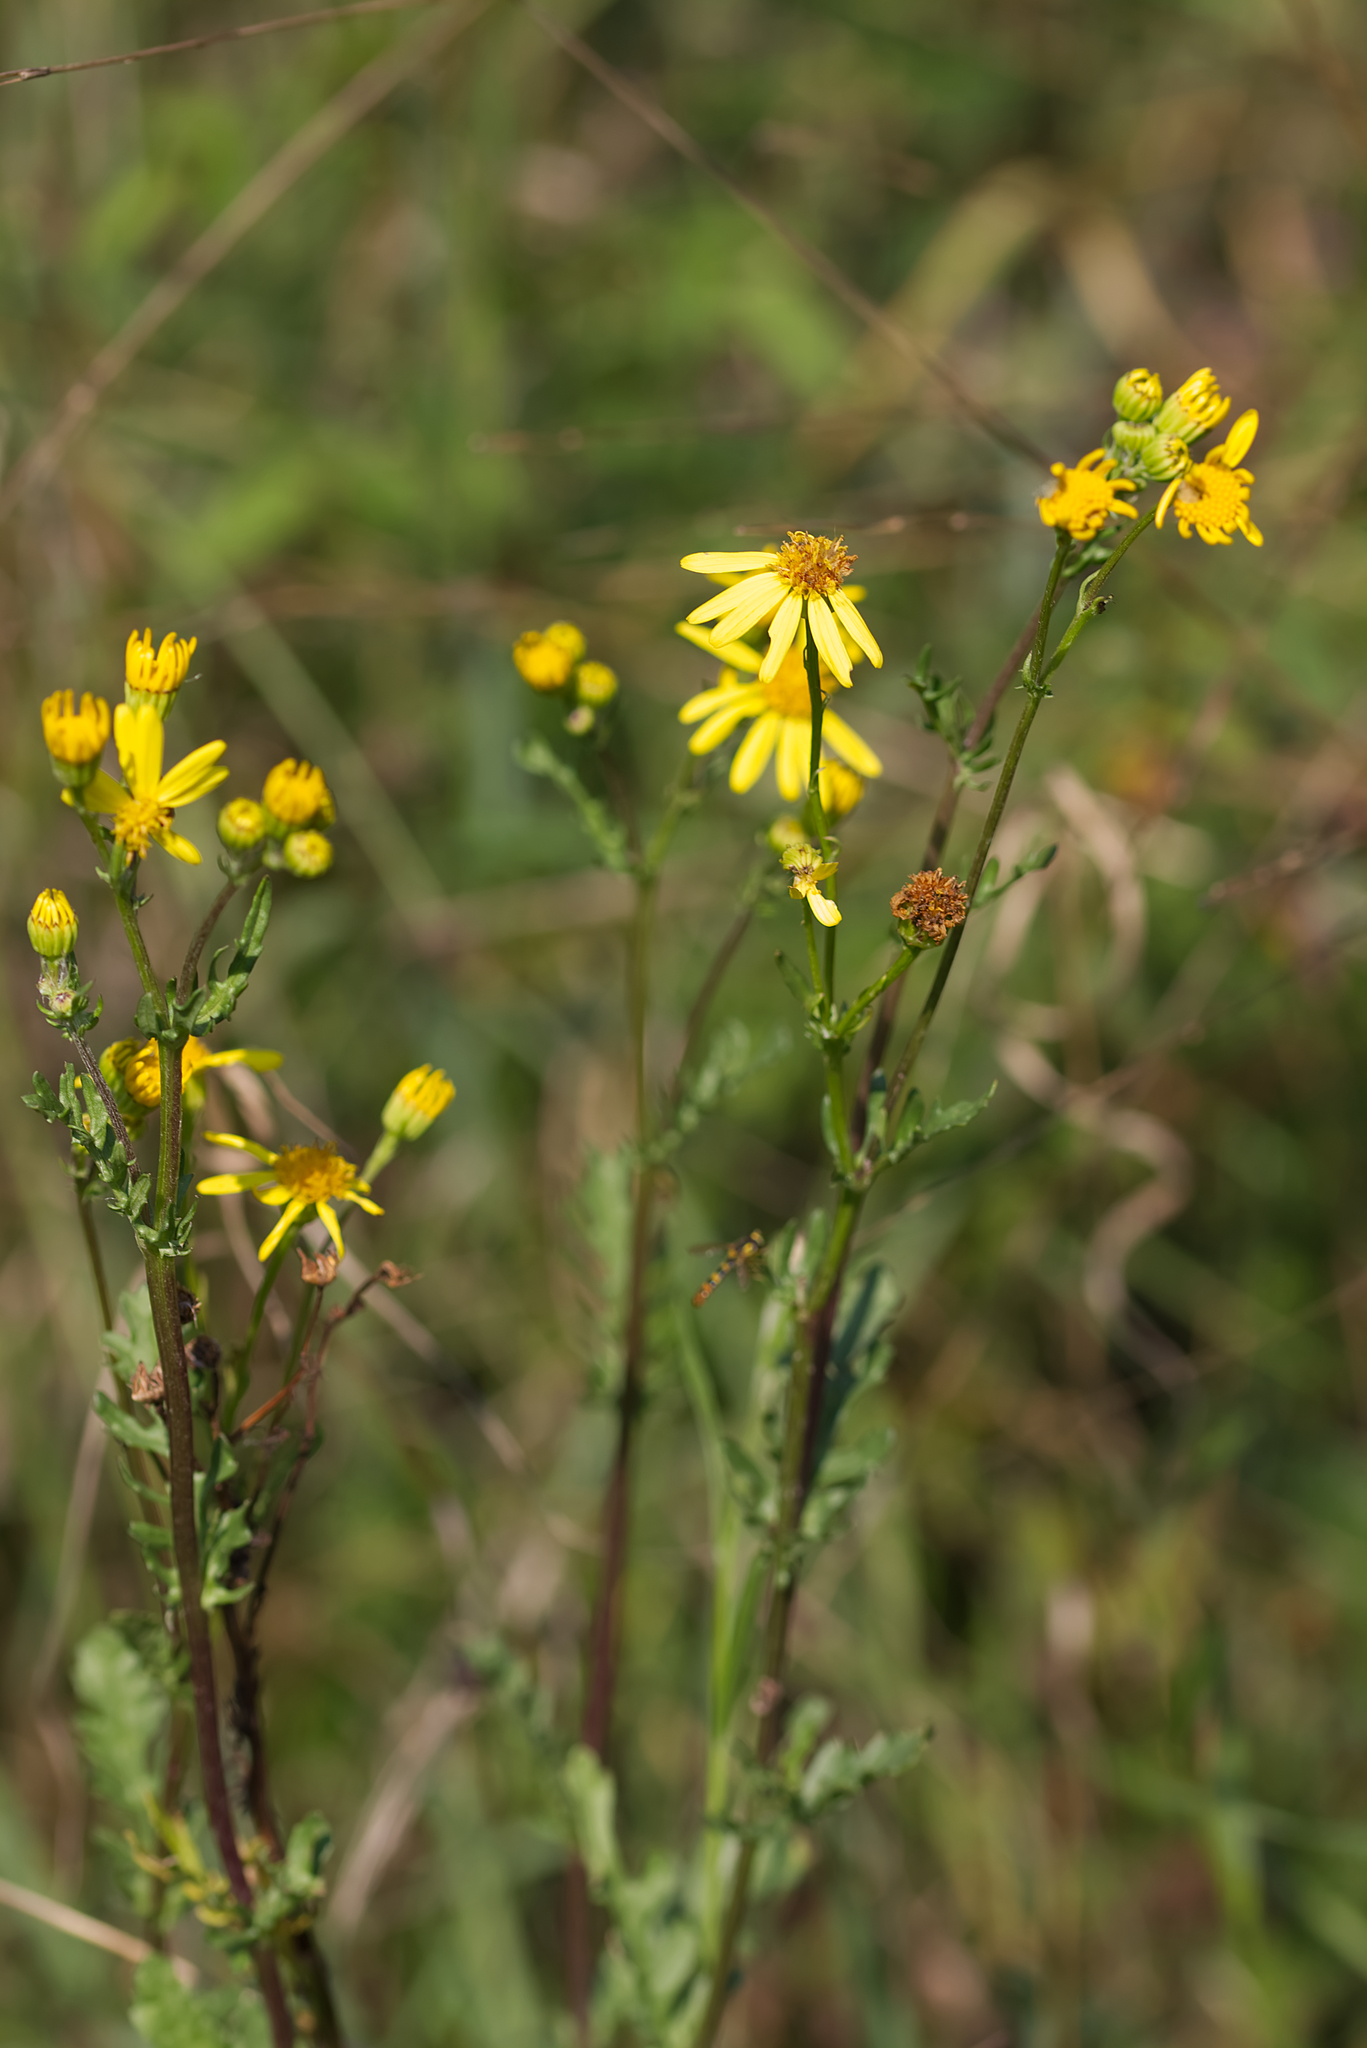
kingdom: Plantae
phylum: Tracheophyta
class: Magnoliopsida
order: Asterales
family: Asteraceae
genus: Jacobaea
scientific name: Jacobaea vulgaris
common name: Stinking willie
